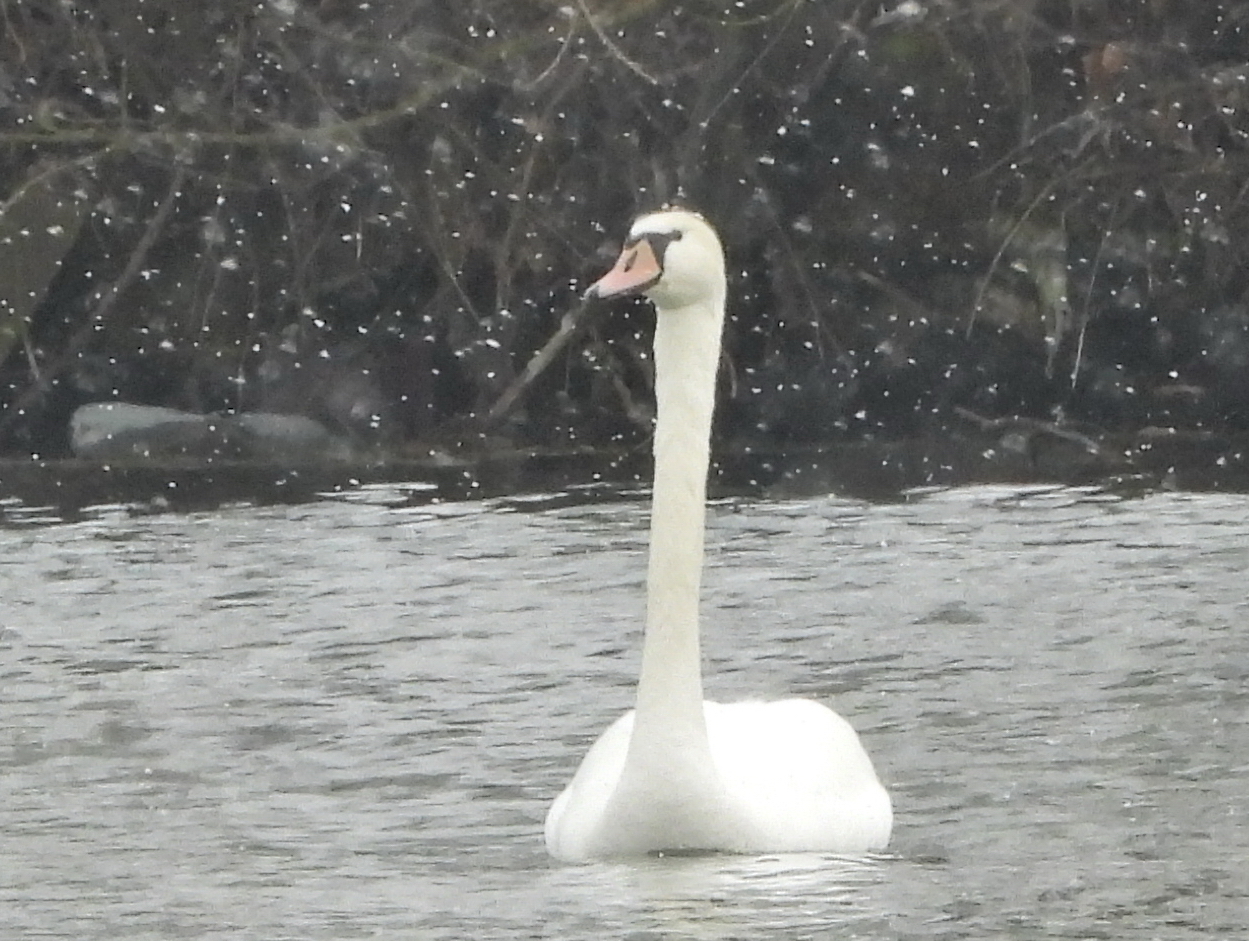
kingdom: Animalia
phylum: Chordata
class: Aves
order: Anseriformes
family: Anatidae
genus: Cygnus
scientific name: Cygnus olor
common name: Mute swan
